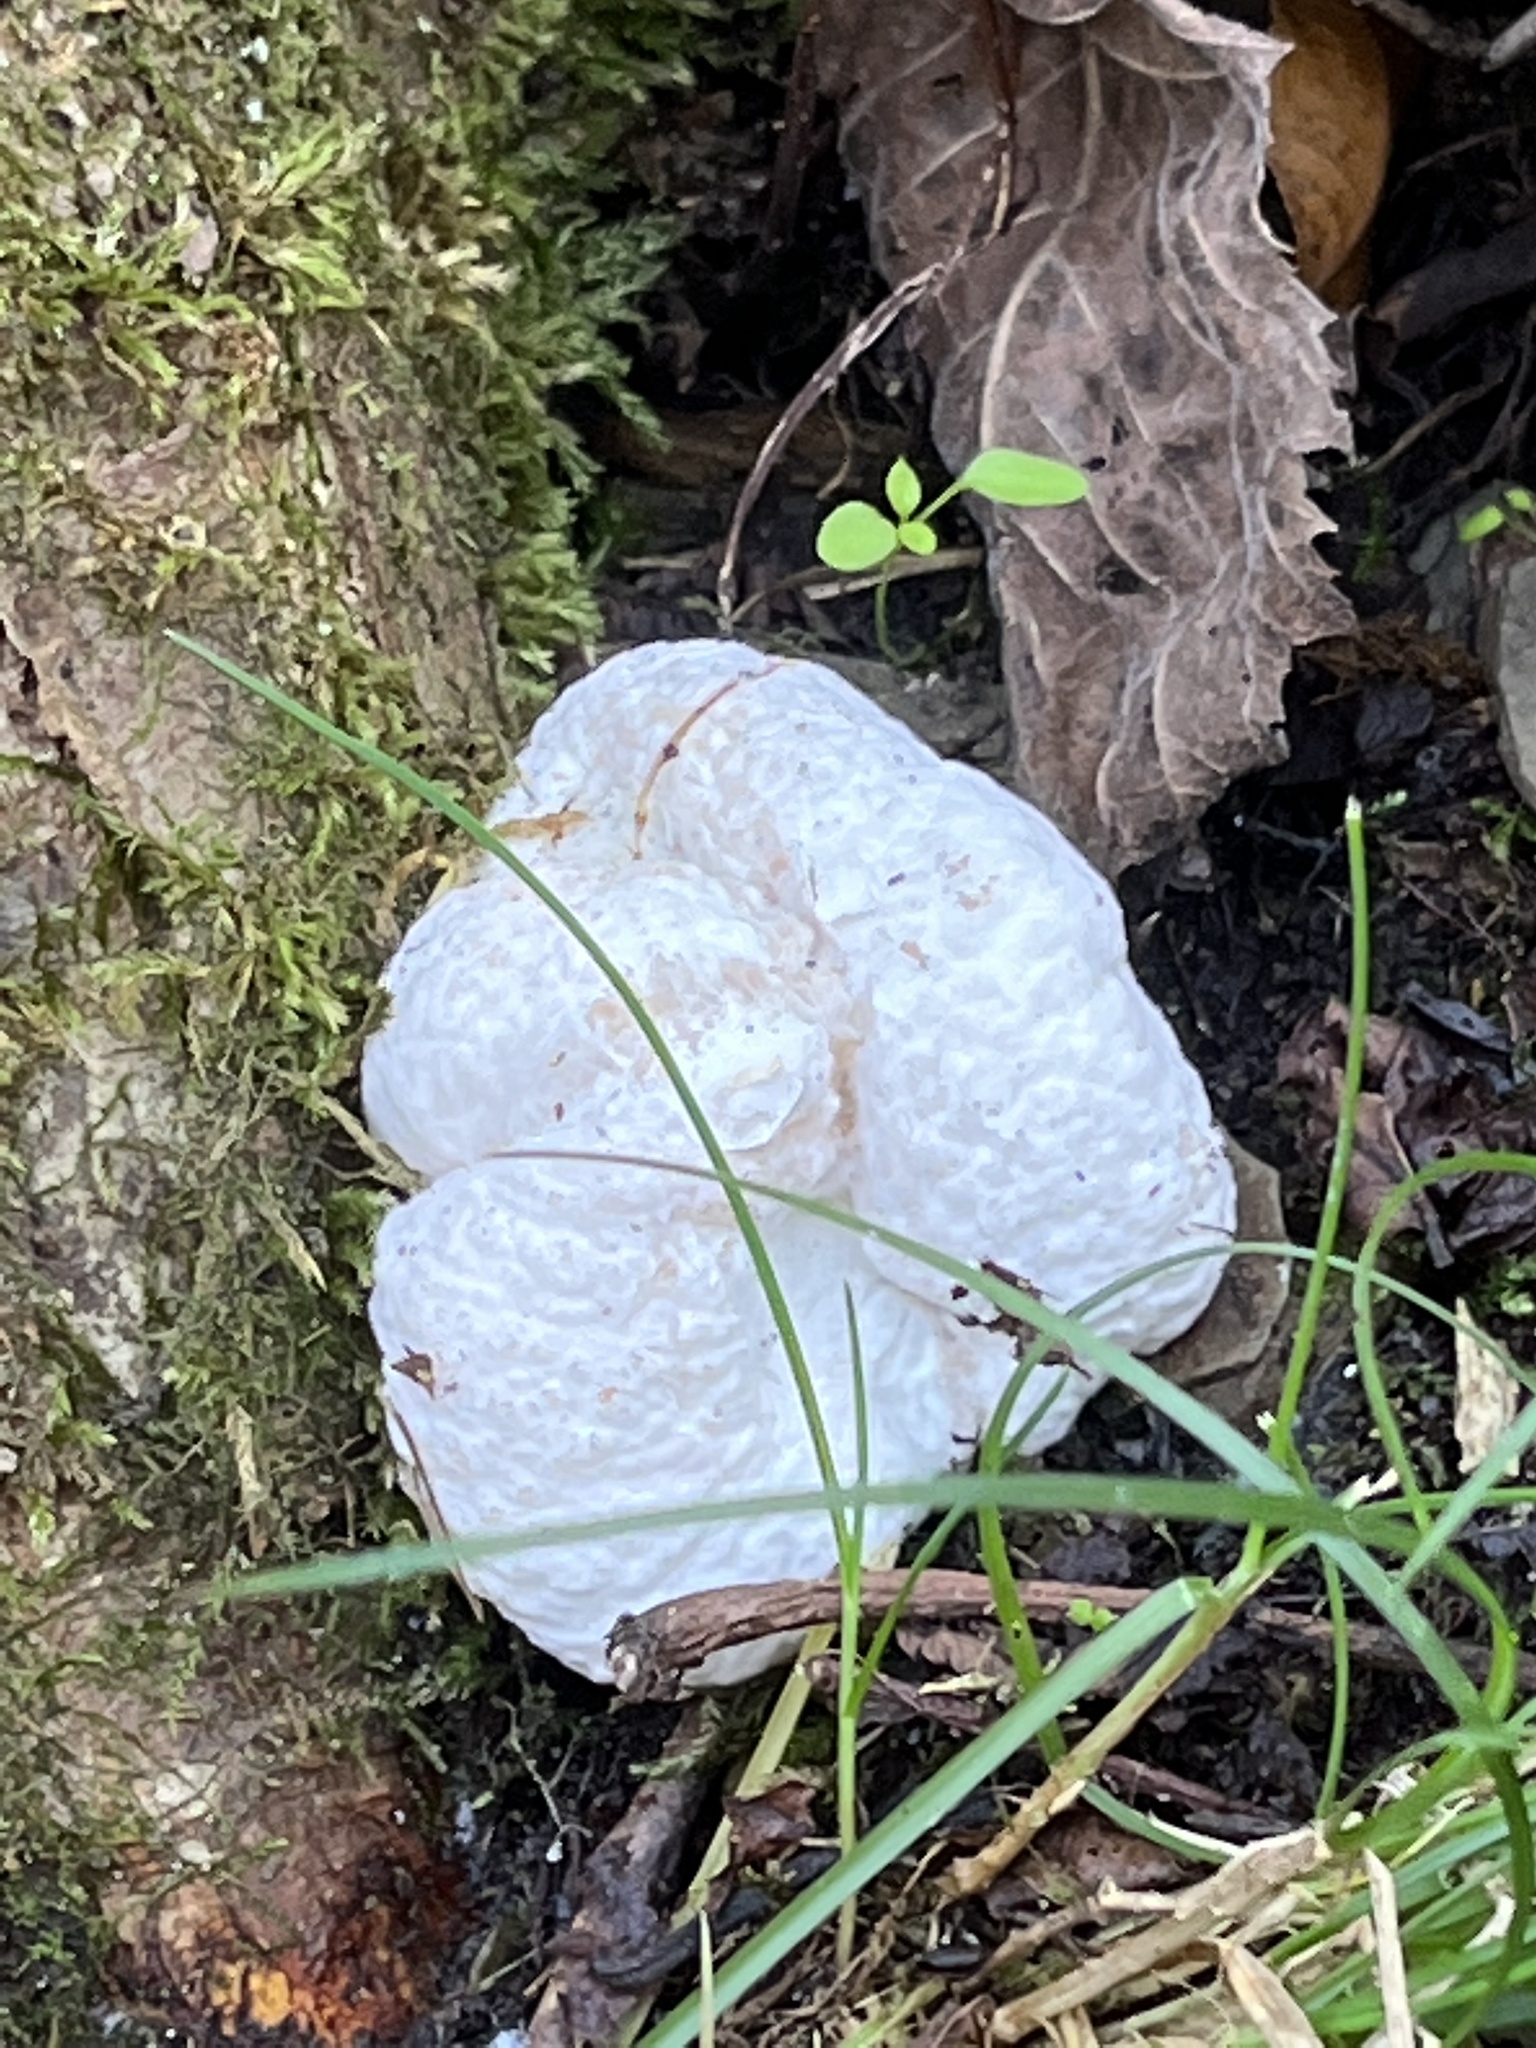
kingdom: Fungi
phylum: Basidiomycota
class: Agaricomycetes
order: Agaricales
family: Entolomataceae
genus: Entoloma
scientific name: Entoloma abortivum
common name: Aborted entoloma
